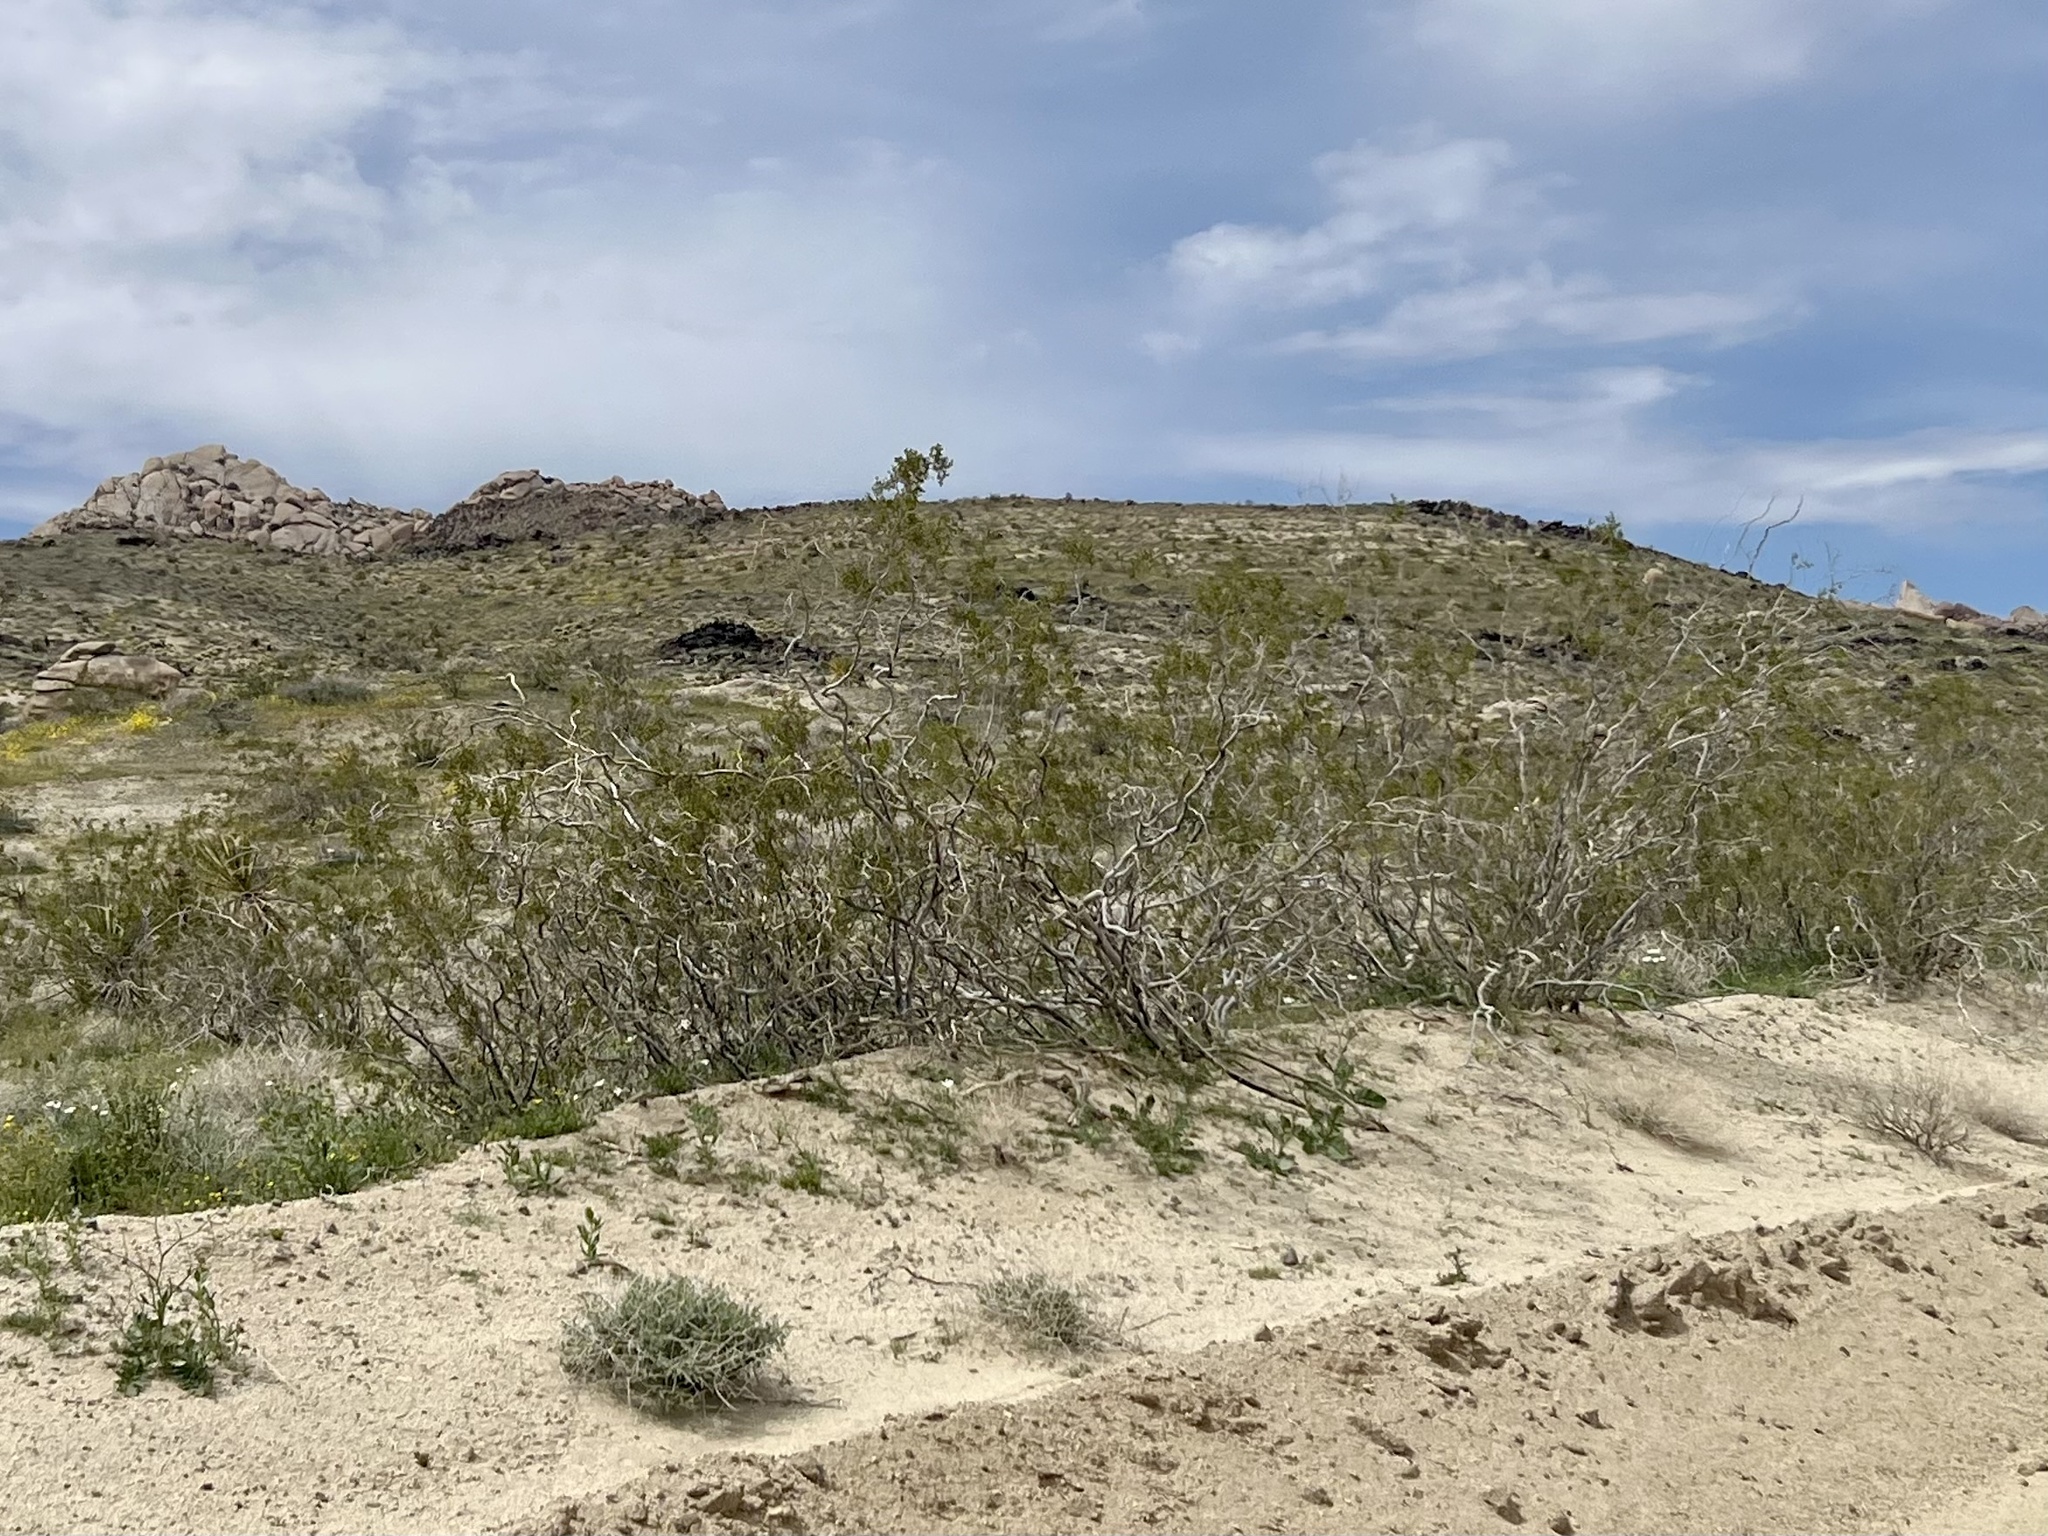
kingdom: Plantae
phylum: Tracheophyta
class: Magnoliopsida
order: Zygophyllales
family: Zygophyllaceae
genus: Larrea
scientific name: Larrea tridentata
